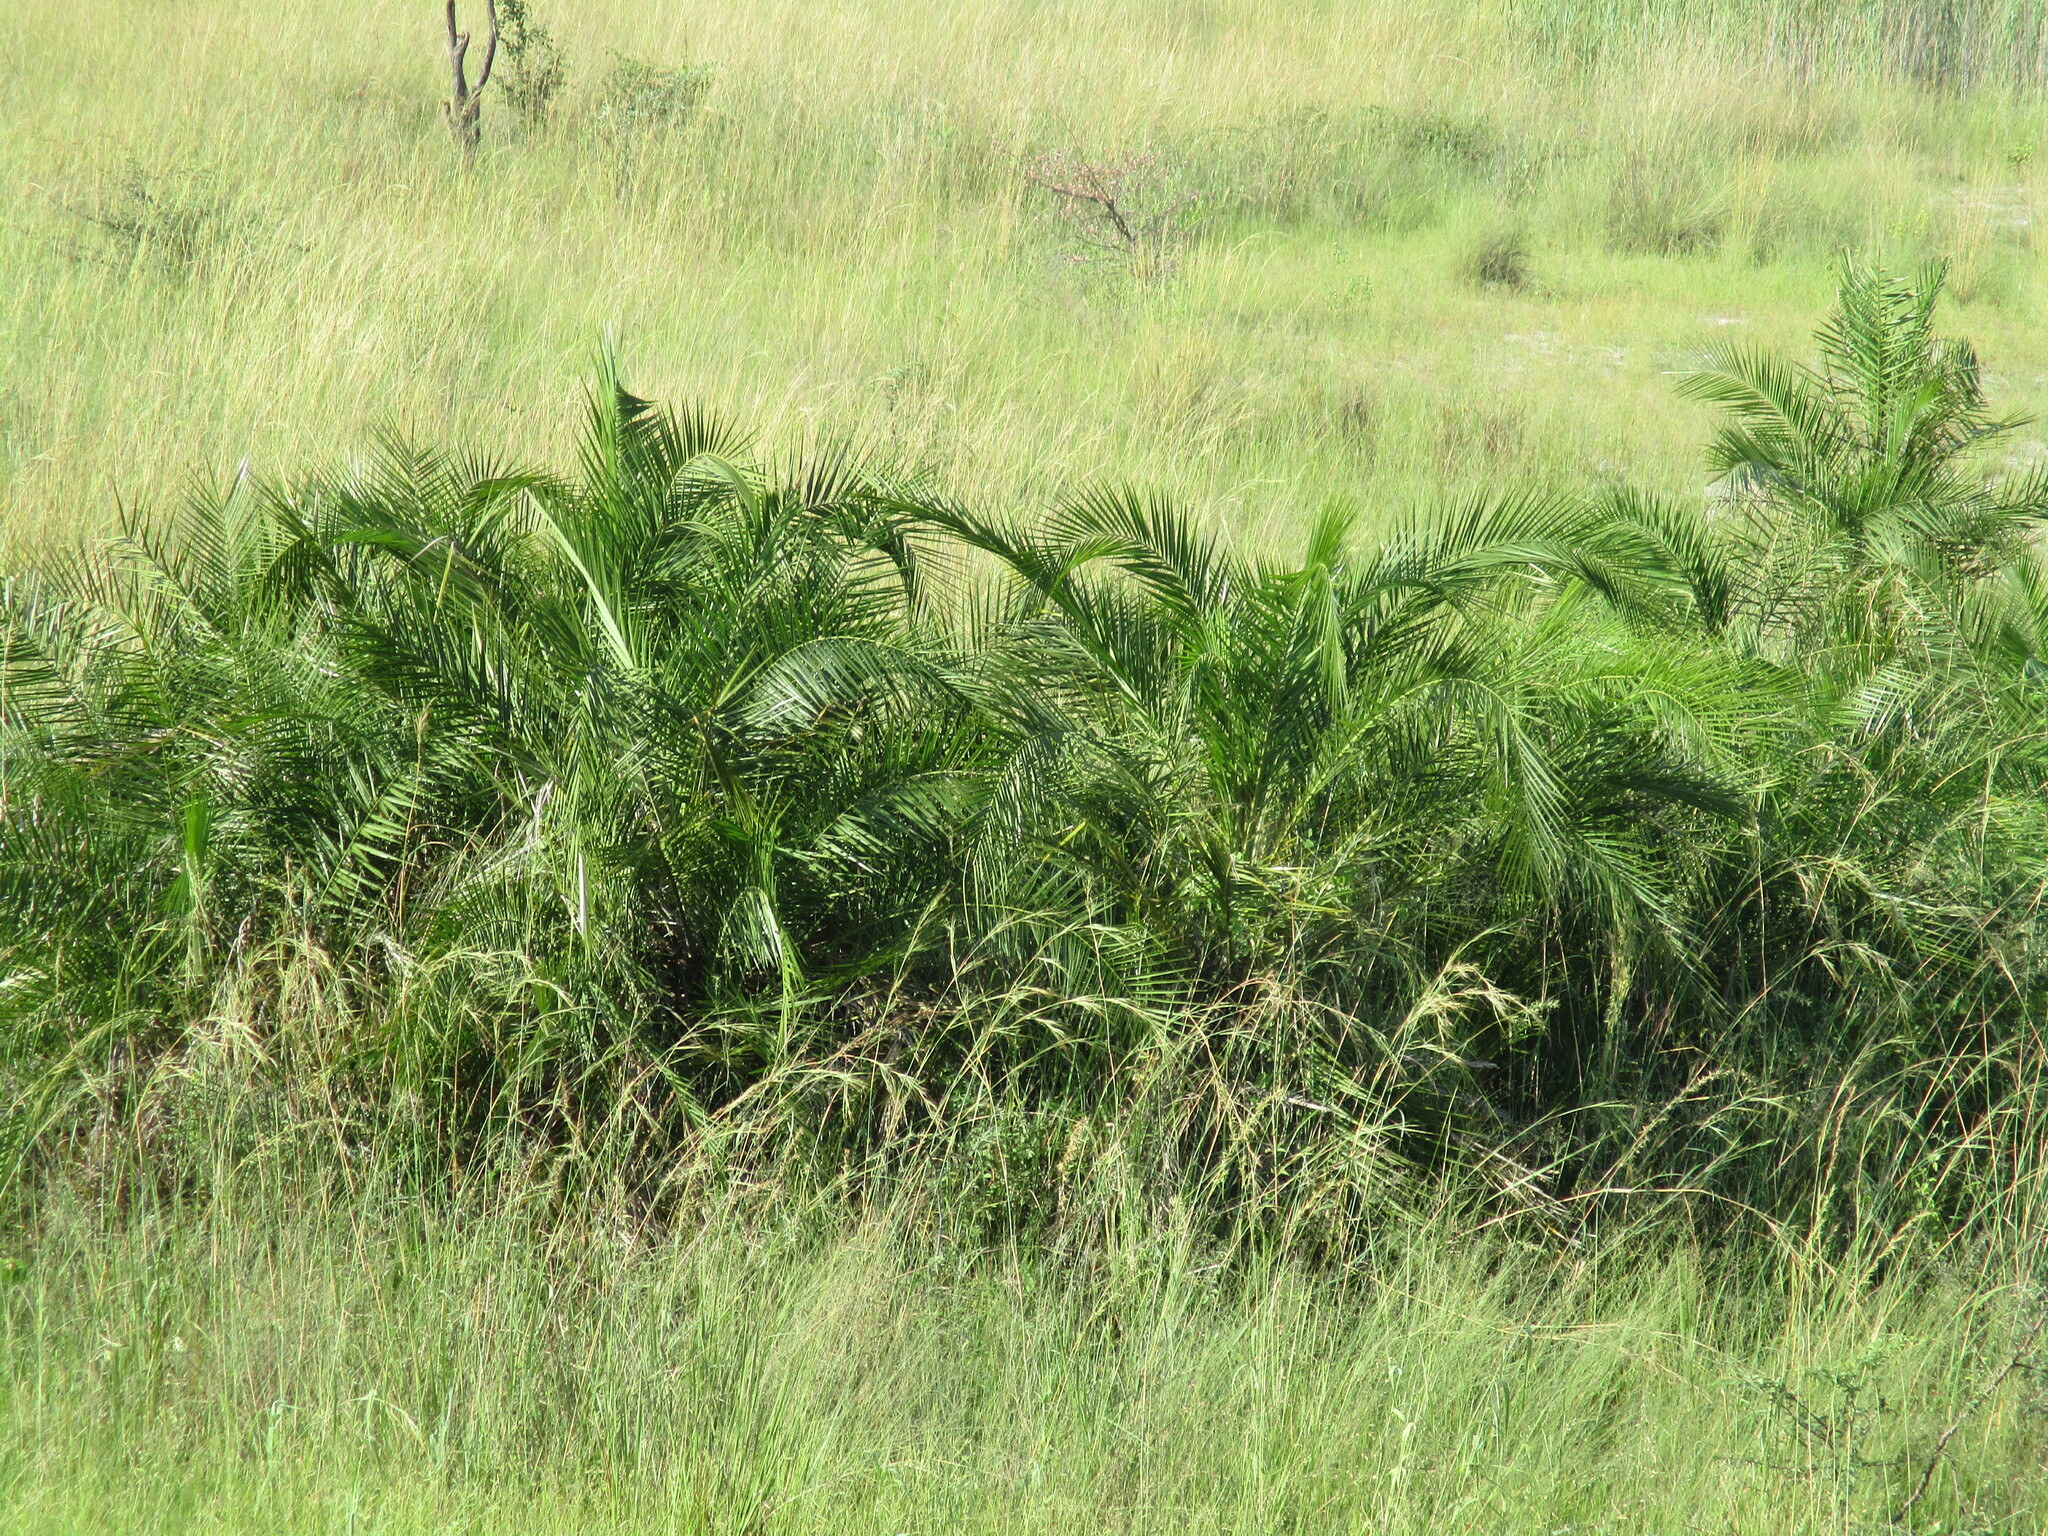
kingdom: Plantae
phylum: Tracheophyta
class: Liliopsida
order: Arecales
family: Arecaceae
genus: Phoenix
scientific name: Phoenix reclinata
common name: Senegal date palm
